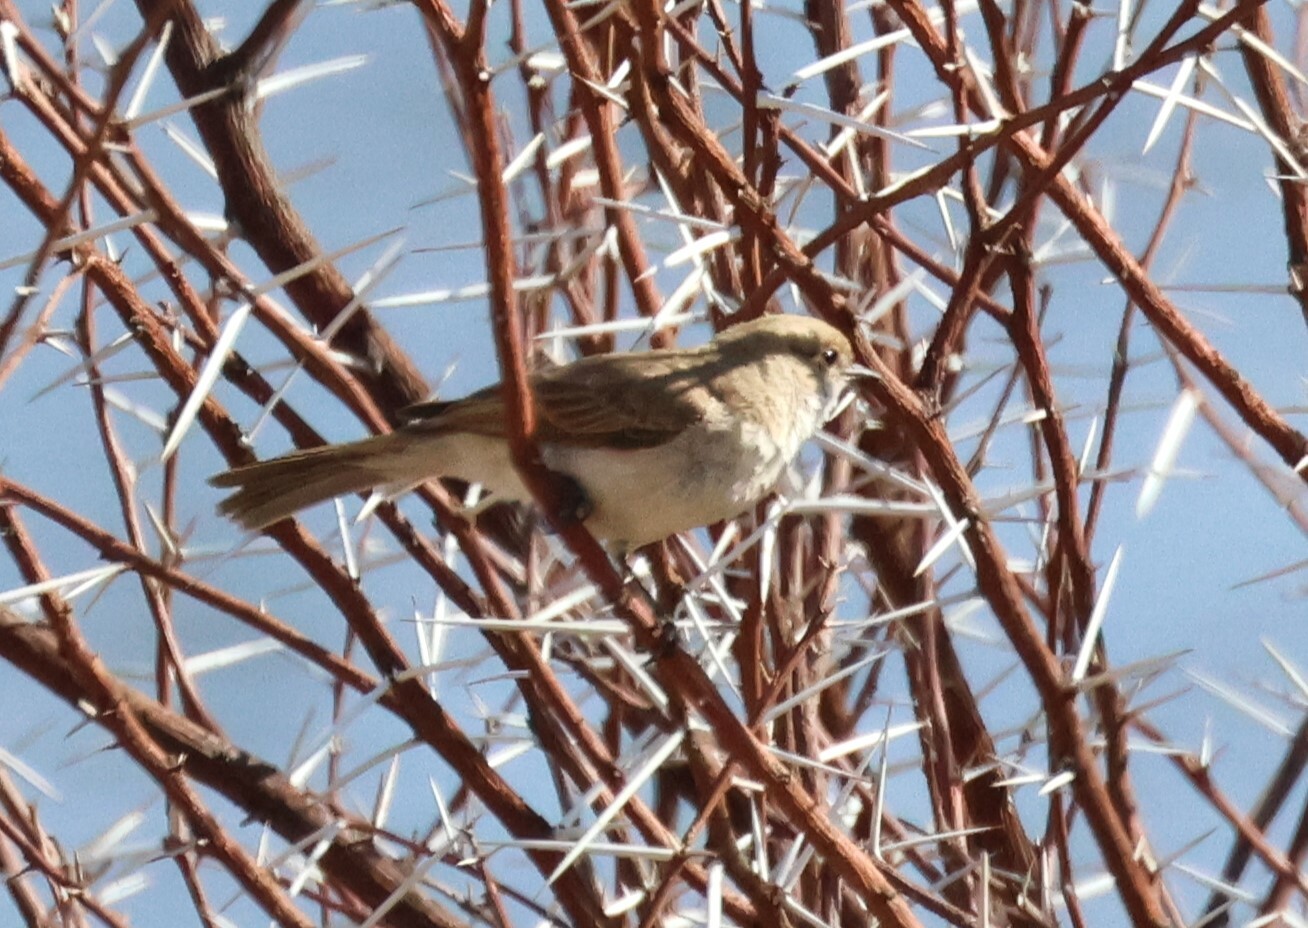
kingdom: Animalia
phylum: Chordata
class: Aves
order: Passeriformes
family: Muscicapidae
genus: Bradornis
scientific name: Bradornis mariquensis
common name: Marico flycatcher
